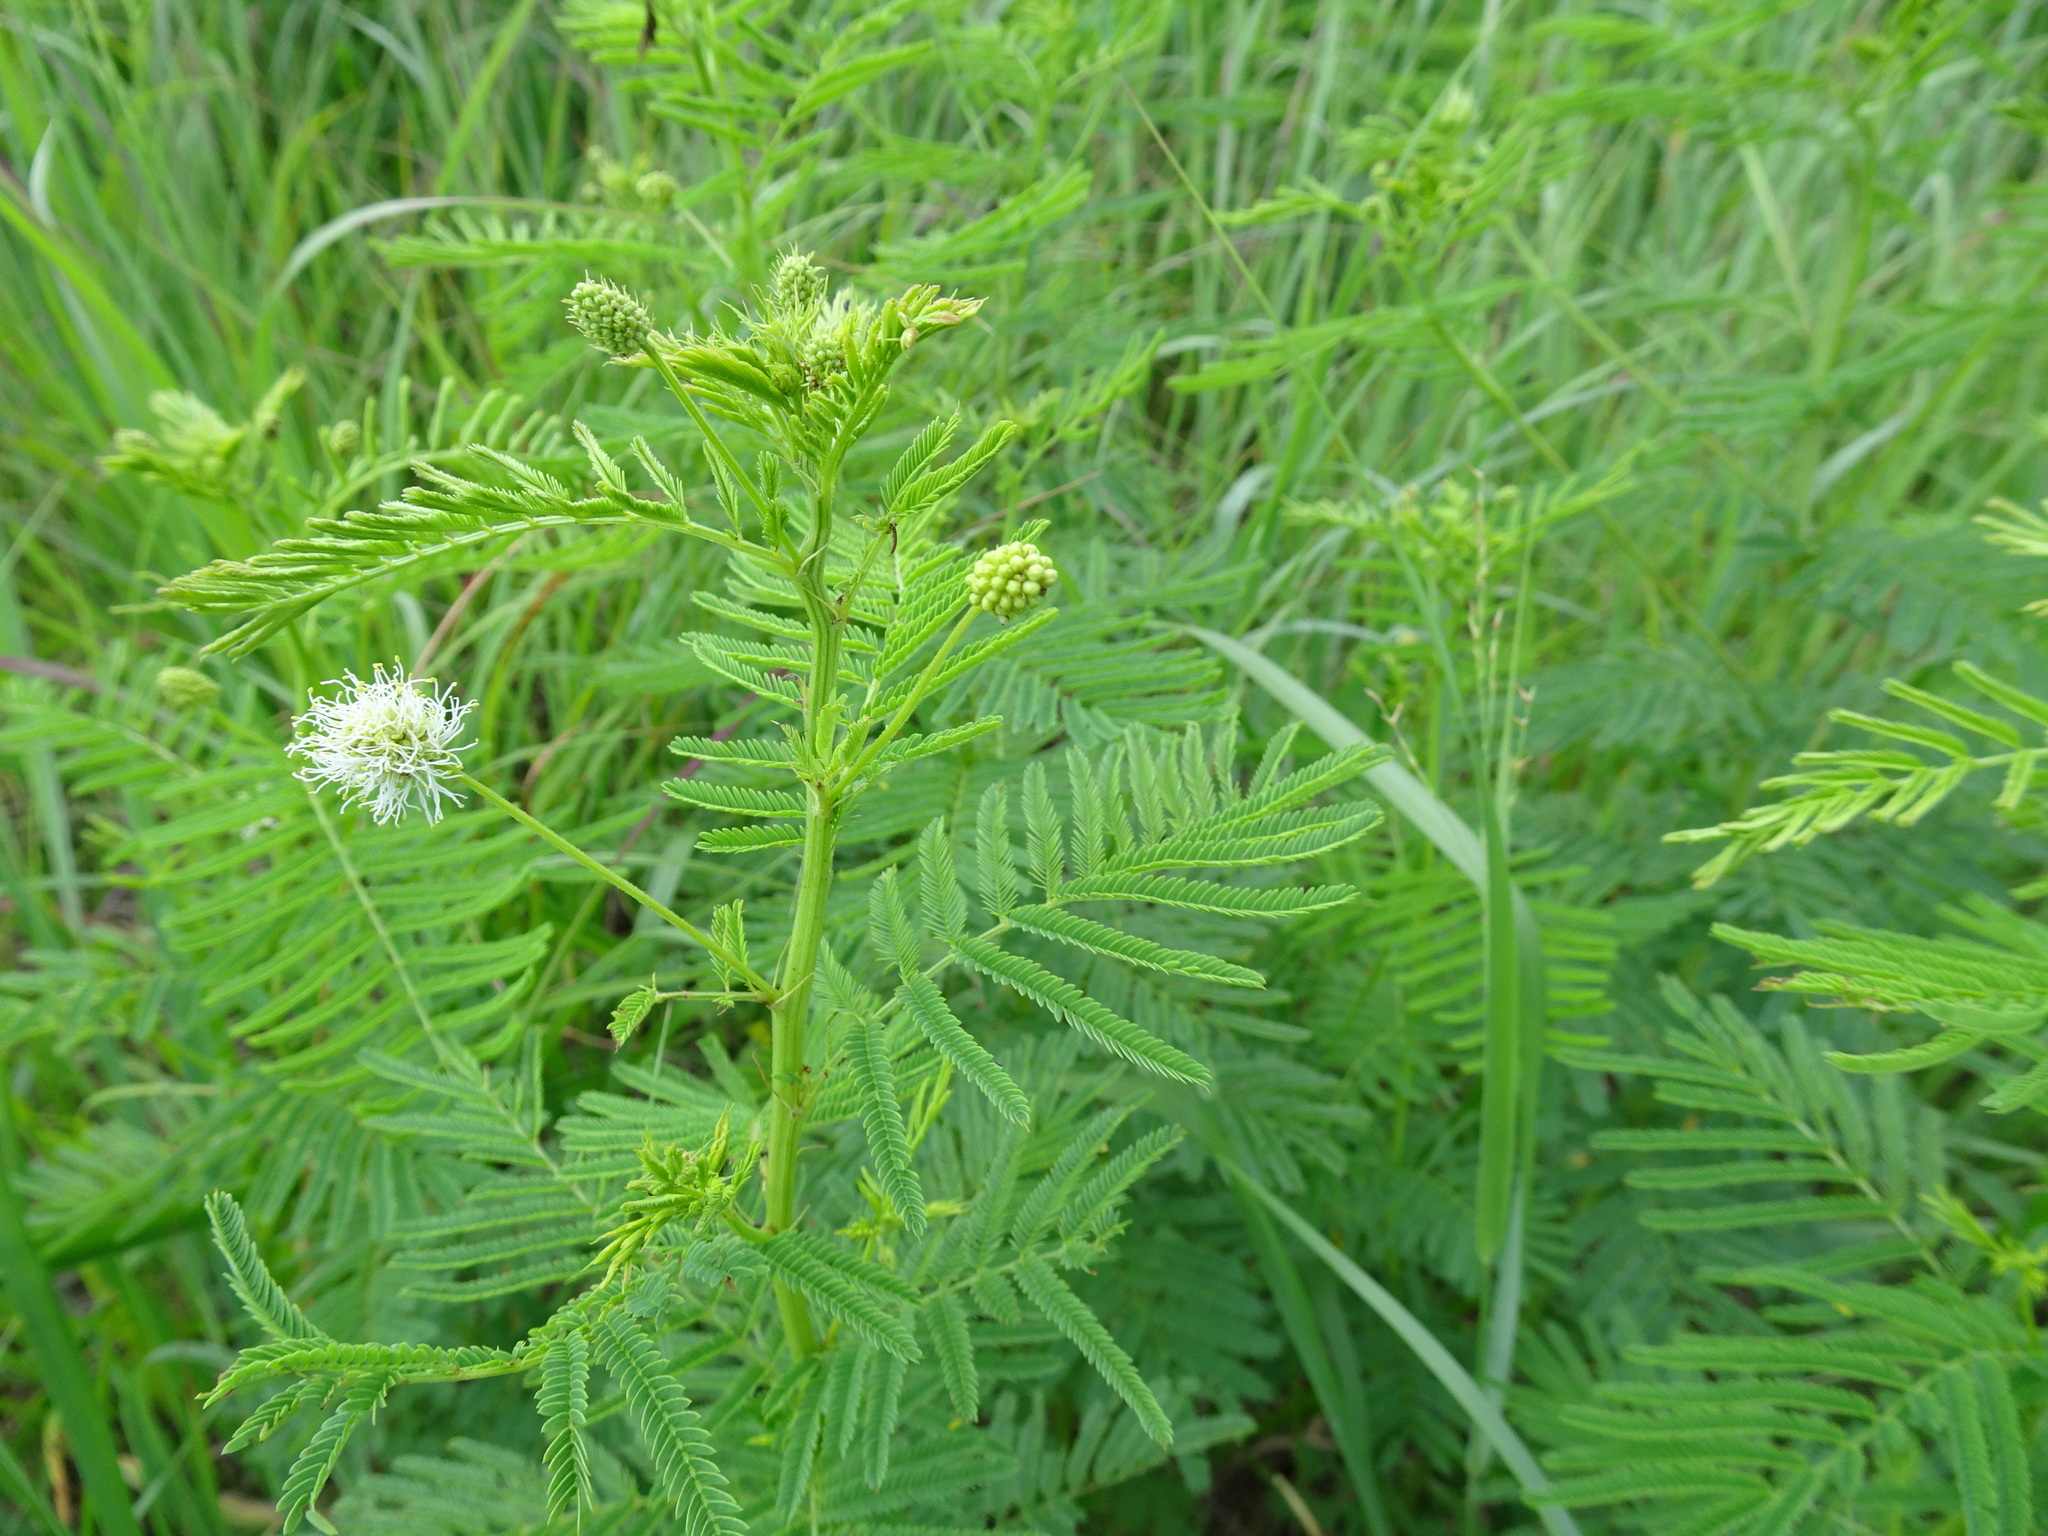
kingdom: Plantae
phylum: Tracheophyta
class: Magnoliopsida
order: Fabales
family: Fabaceae
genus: Desmanthus
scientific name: Desmanthus illinoensis
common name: Illinois bundle-flower
